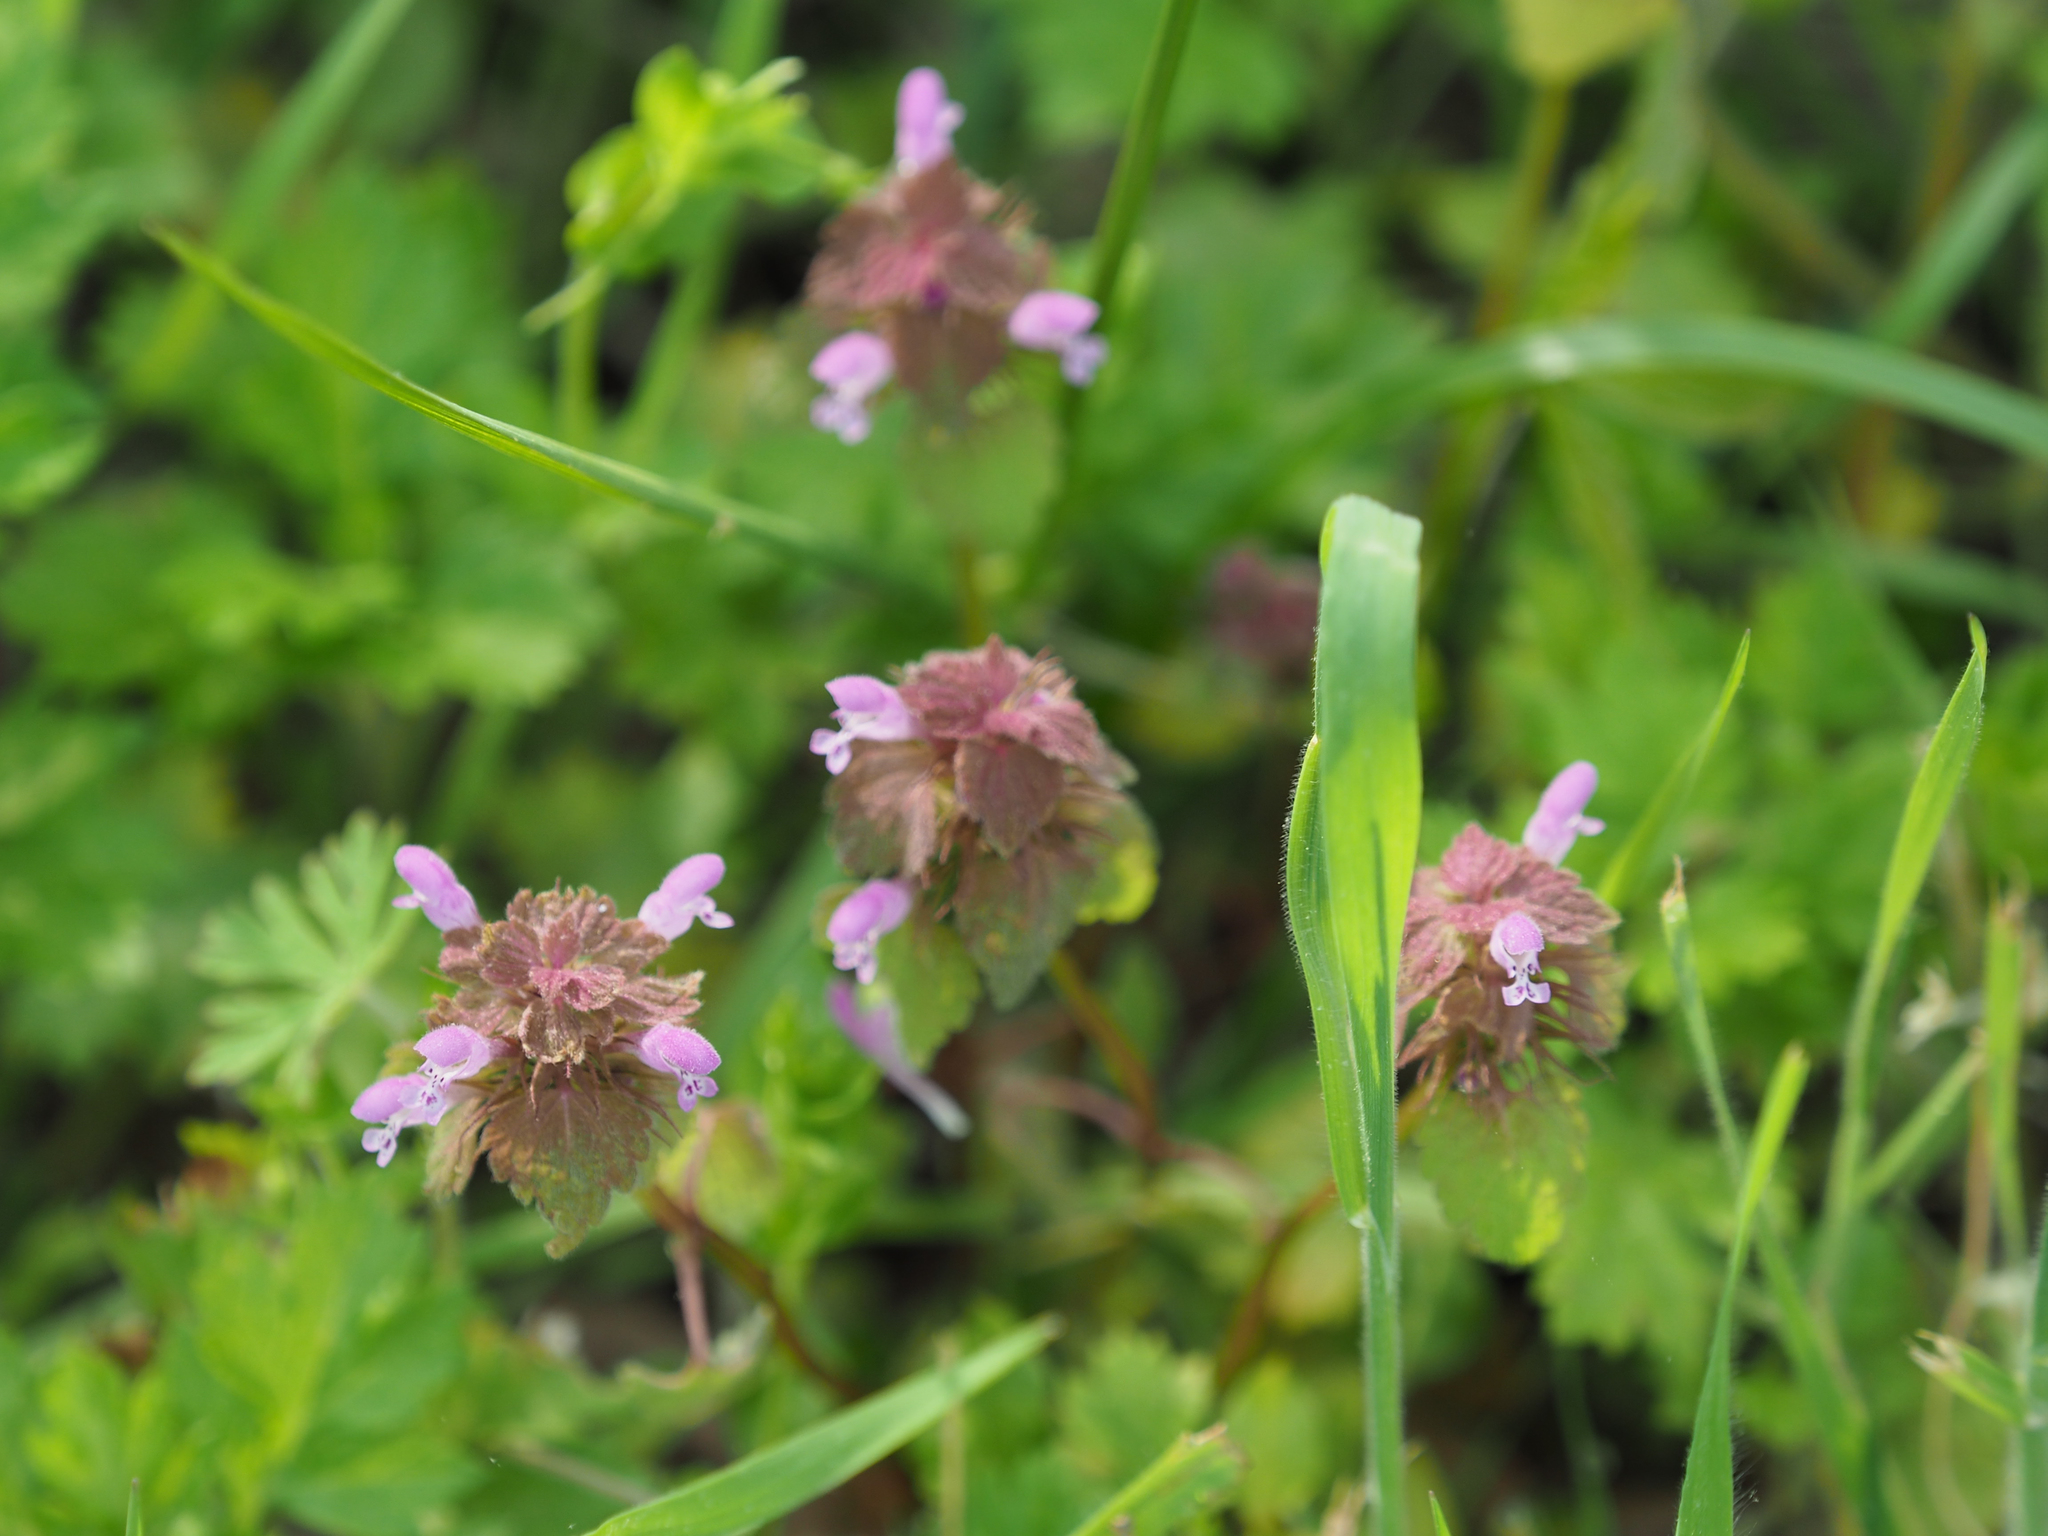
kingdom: Plantae
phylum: Tracheophyta
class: Magnoliopsida
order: Lamiales
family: Lamiaceae
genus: Lamium
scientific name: Lamium purpureum
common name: Red dead-nettle
